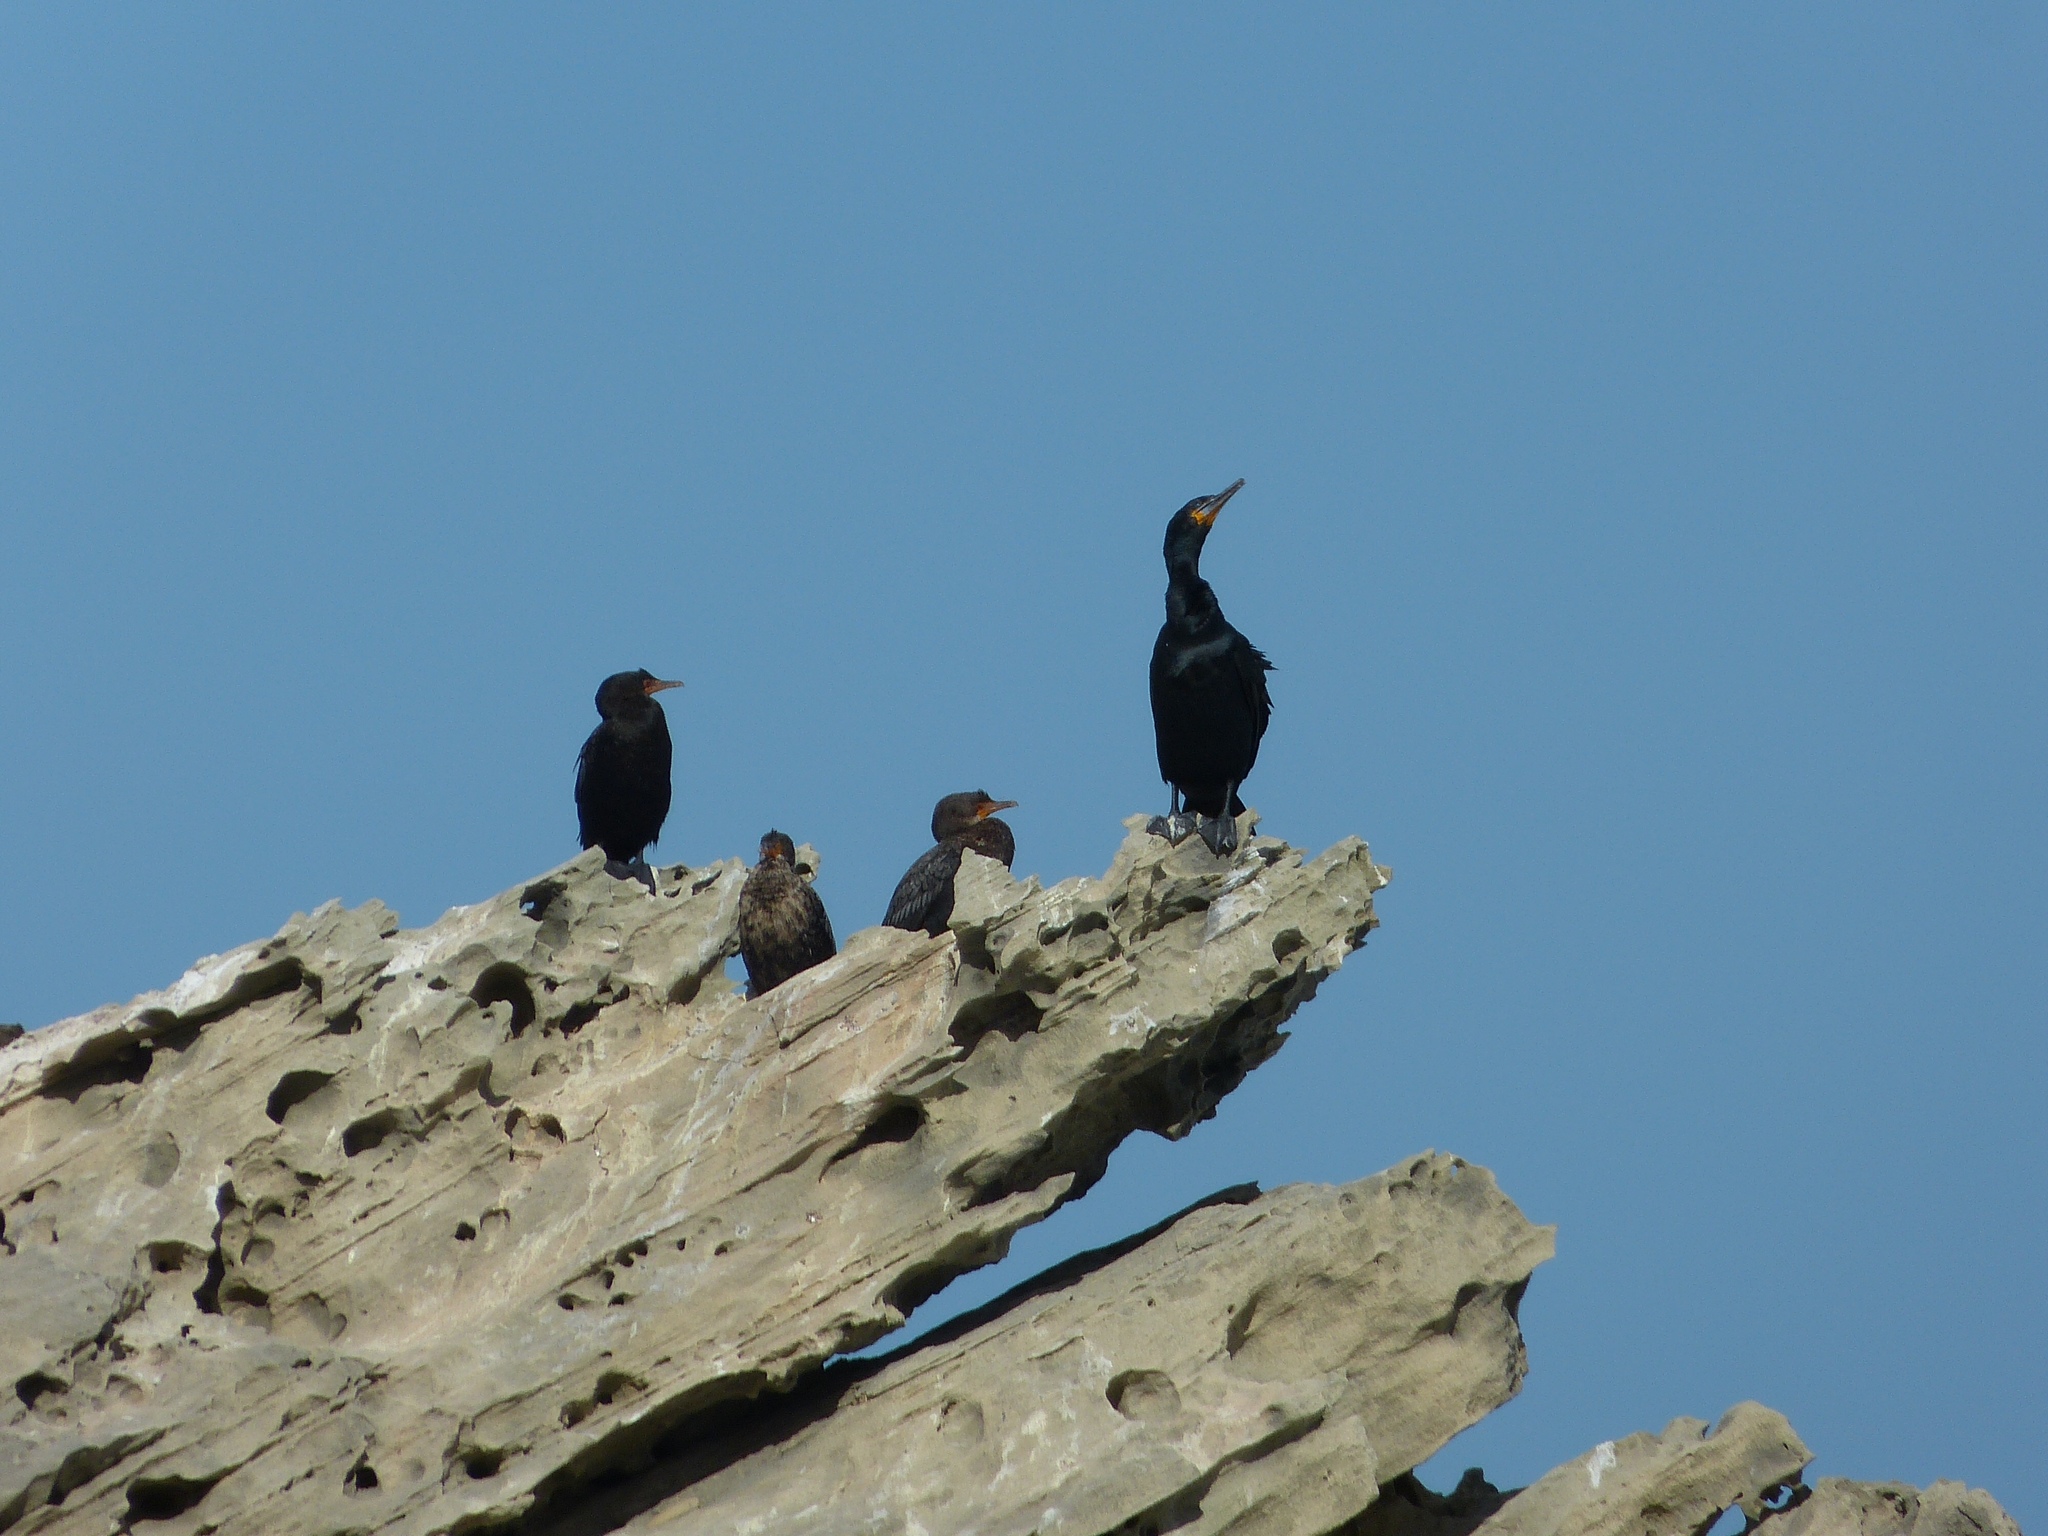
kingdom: Animalia
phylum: Chordata
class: Aves
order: Suliformes
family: Phalacrocoracidae
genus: Phalacrocorax
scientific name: Phalacrocorax capensis
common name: Cape cormorant
